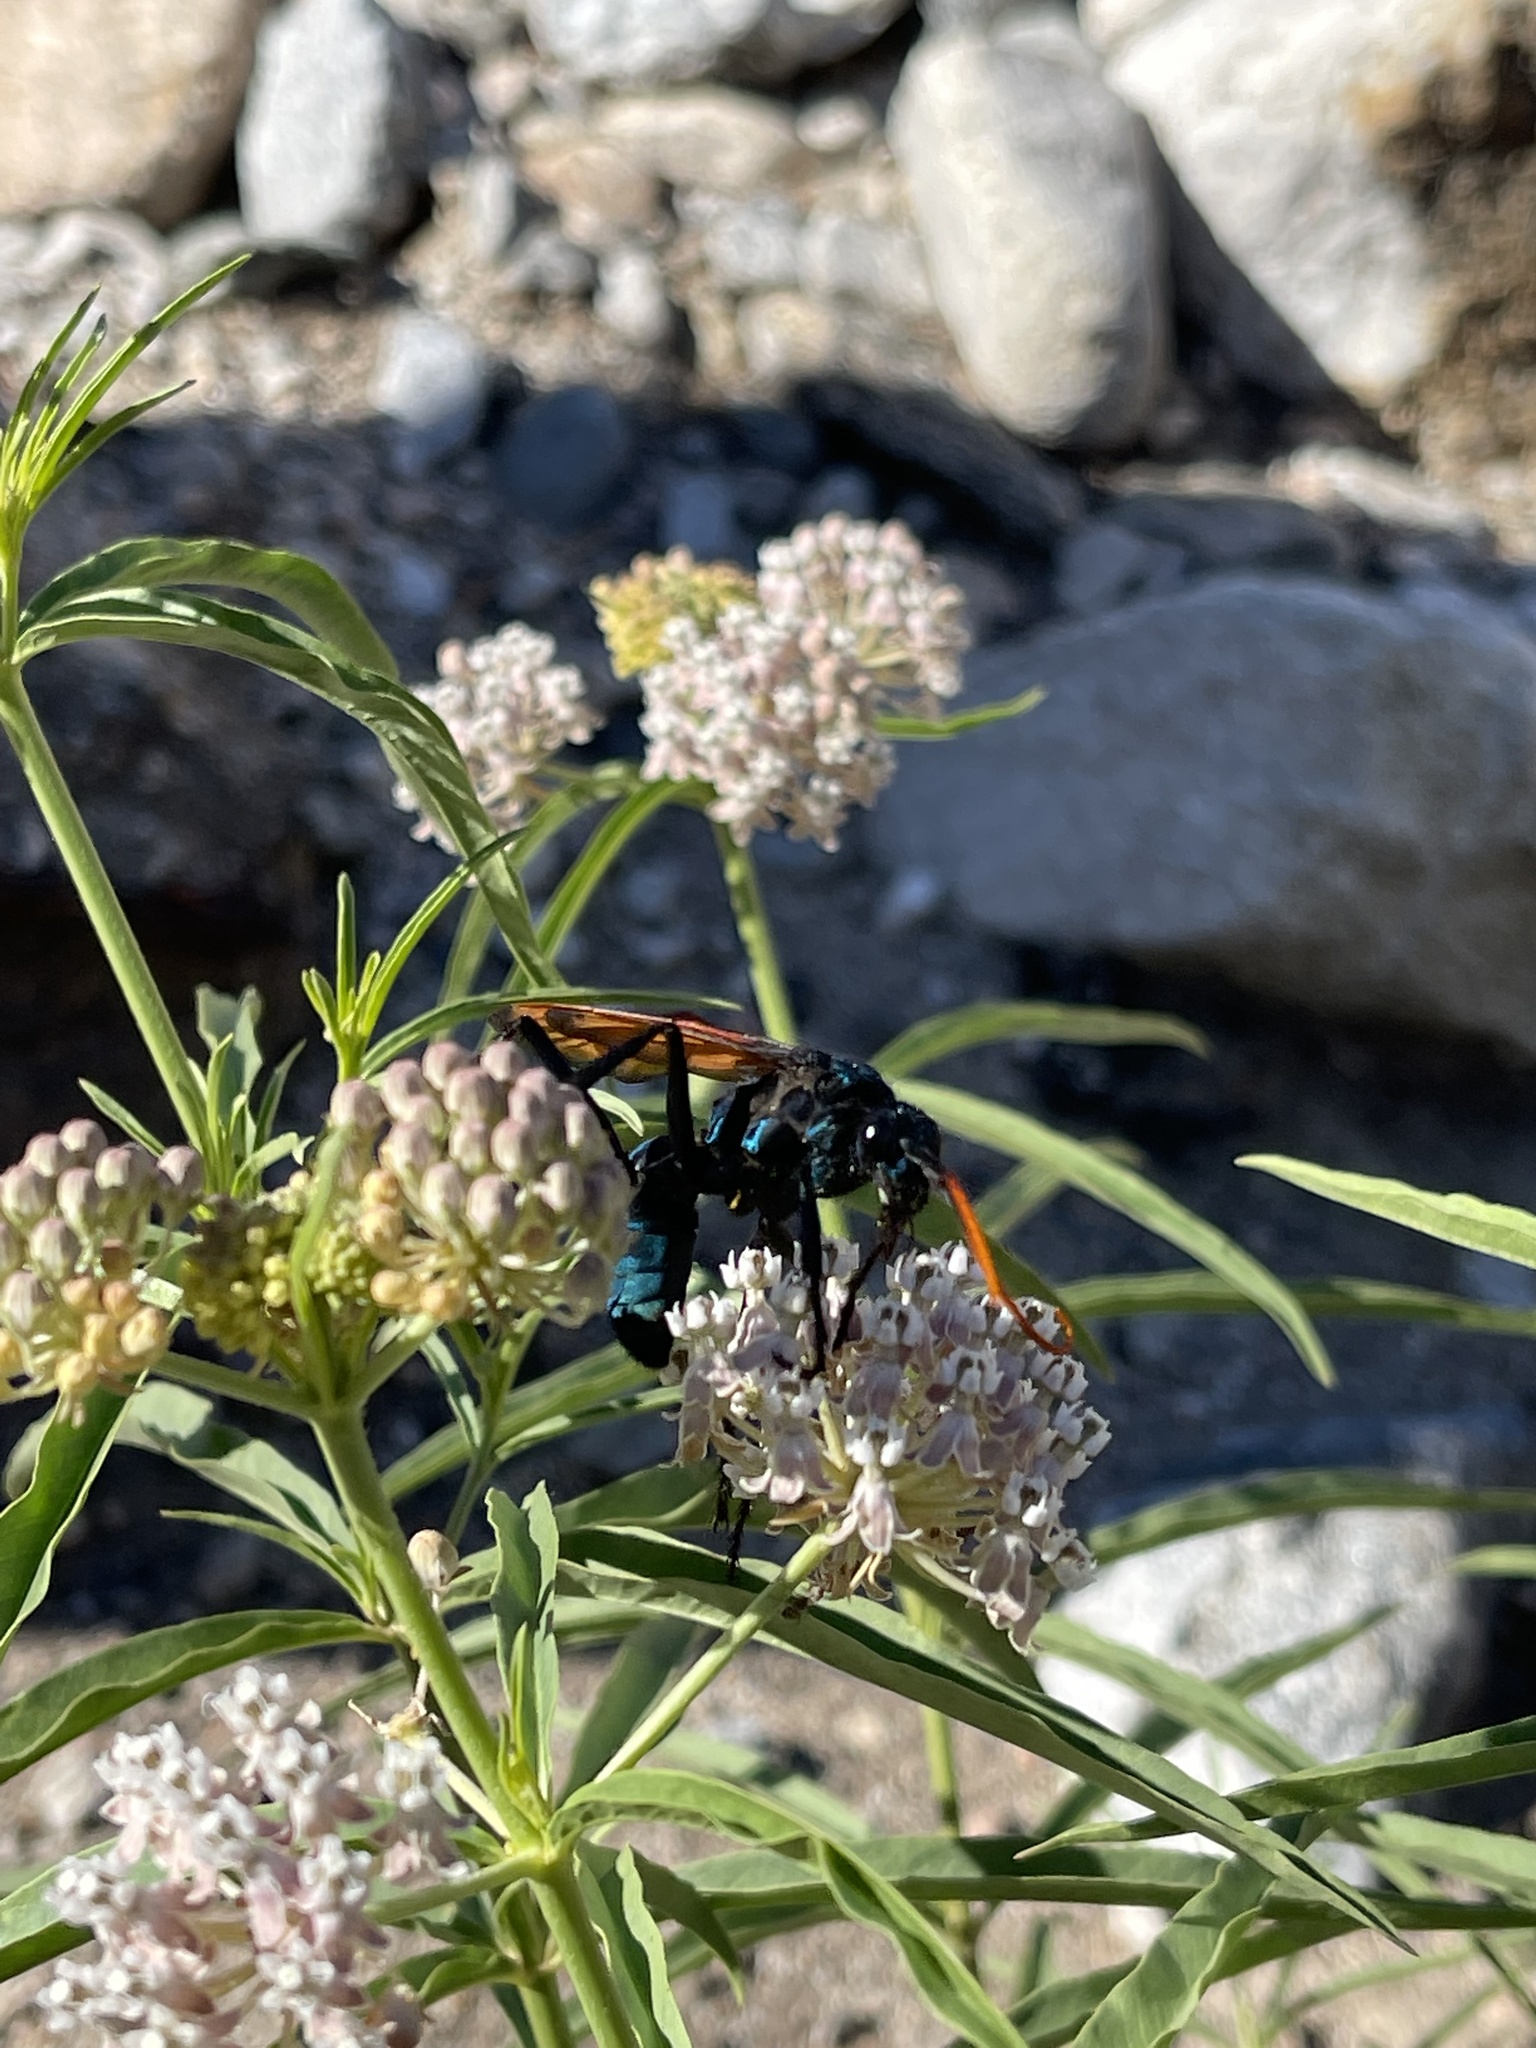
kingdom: Animalia
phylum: Arthropoda
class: Insecta
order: Hymenoptera
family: Pompilidae
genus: Pepsis
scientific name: Pepsis mildei
